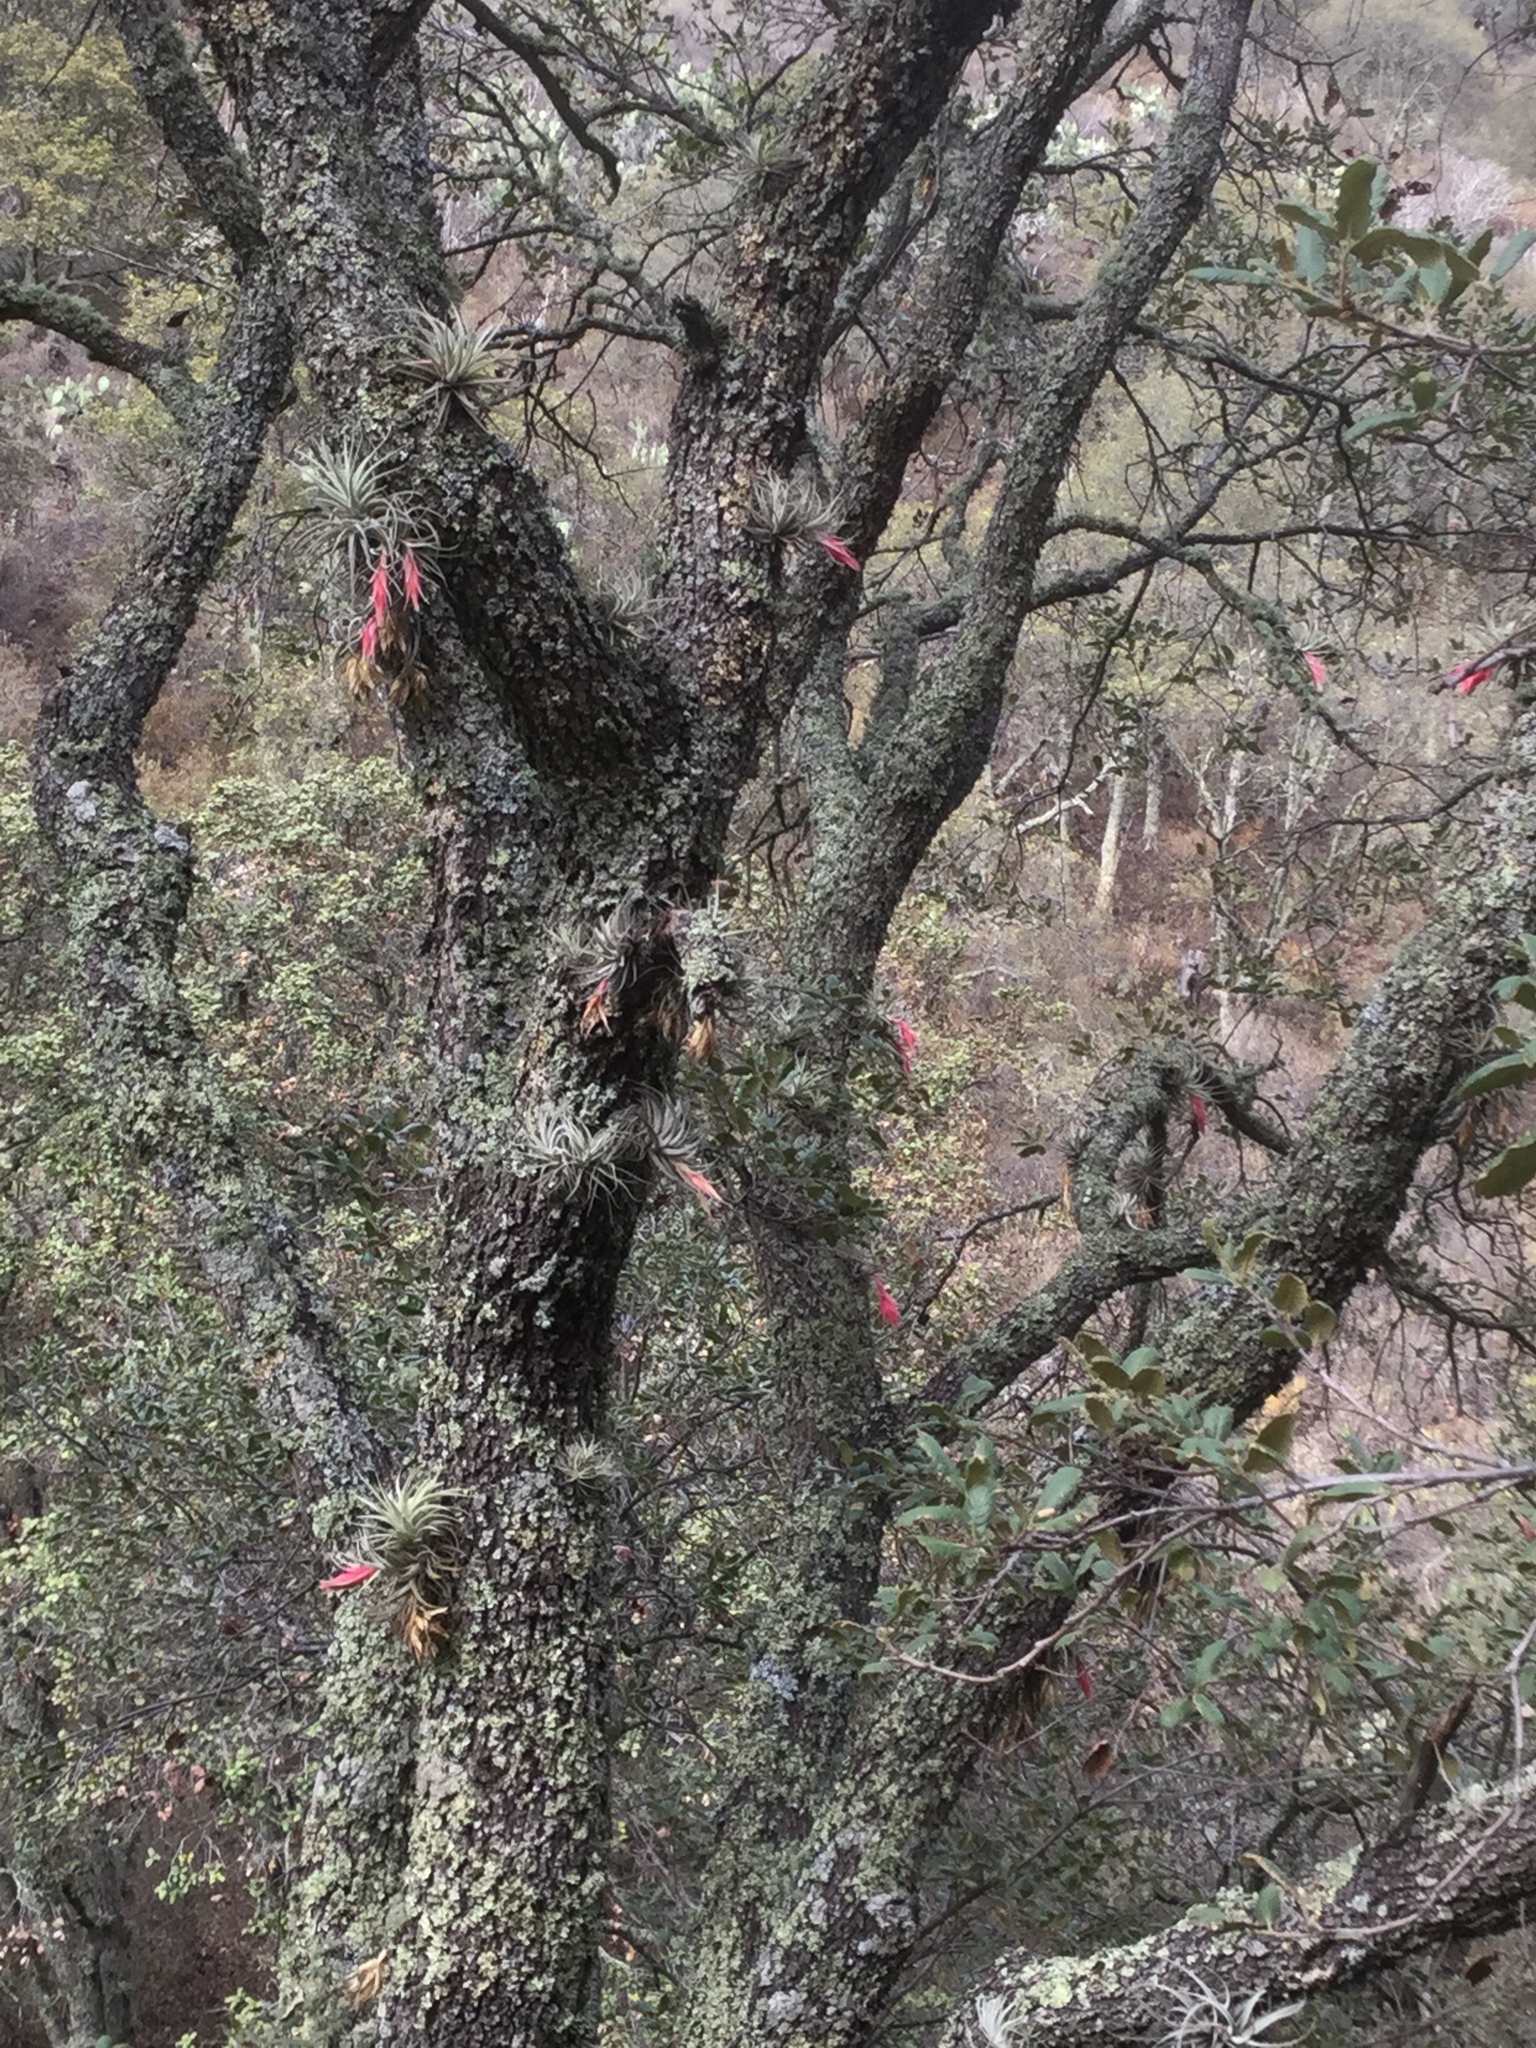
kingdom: Plantae
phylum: Tracheophyta
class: Liliopsida
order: Poales
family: Bromeliaceae
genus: Tillandsia
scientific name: Tillandsia erubescens
